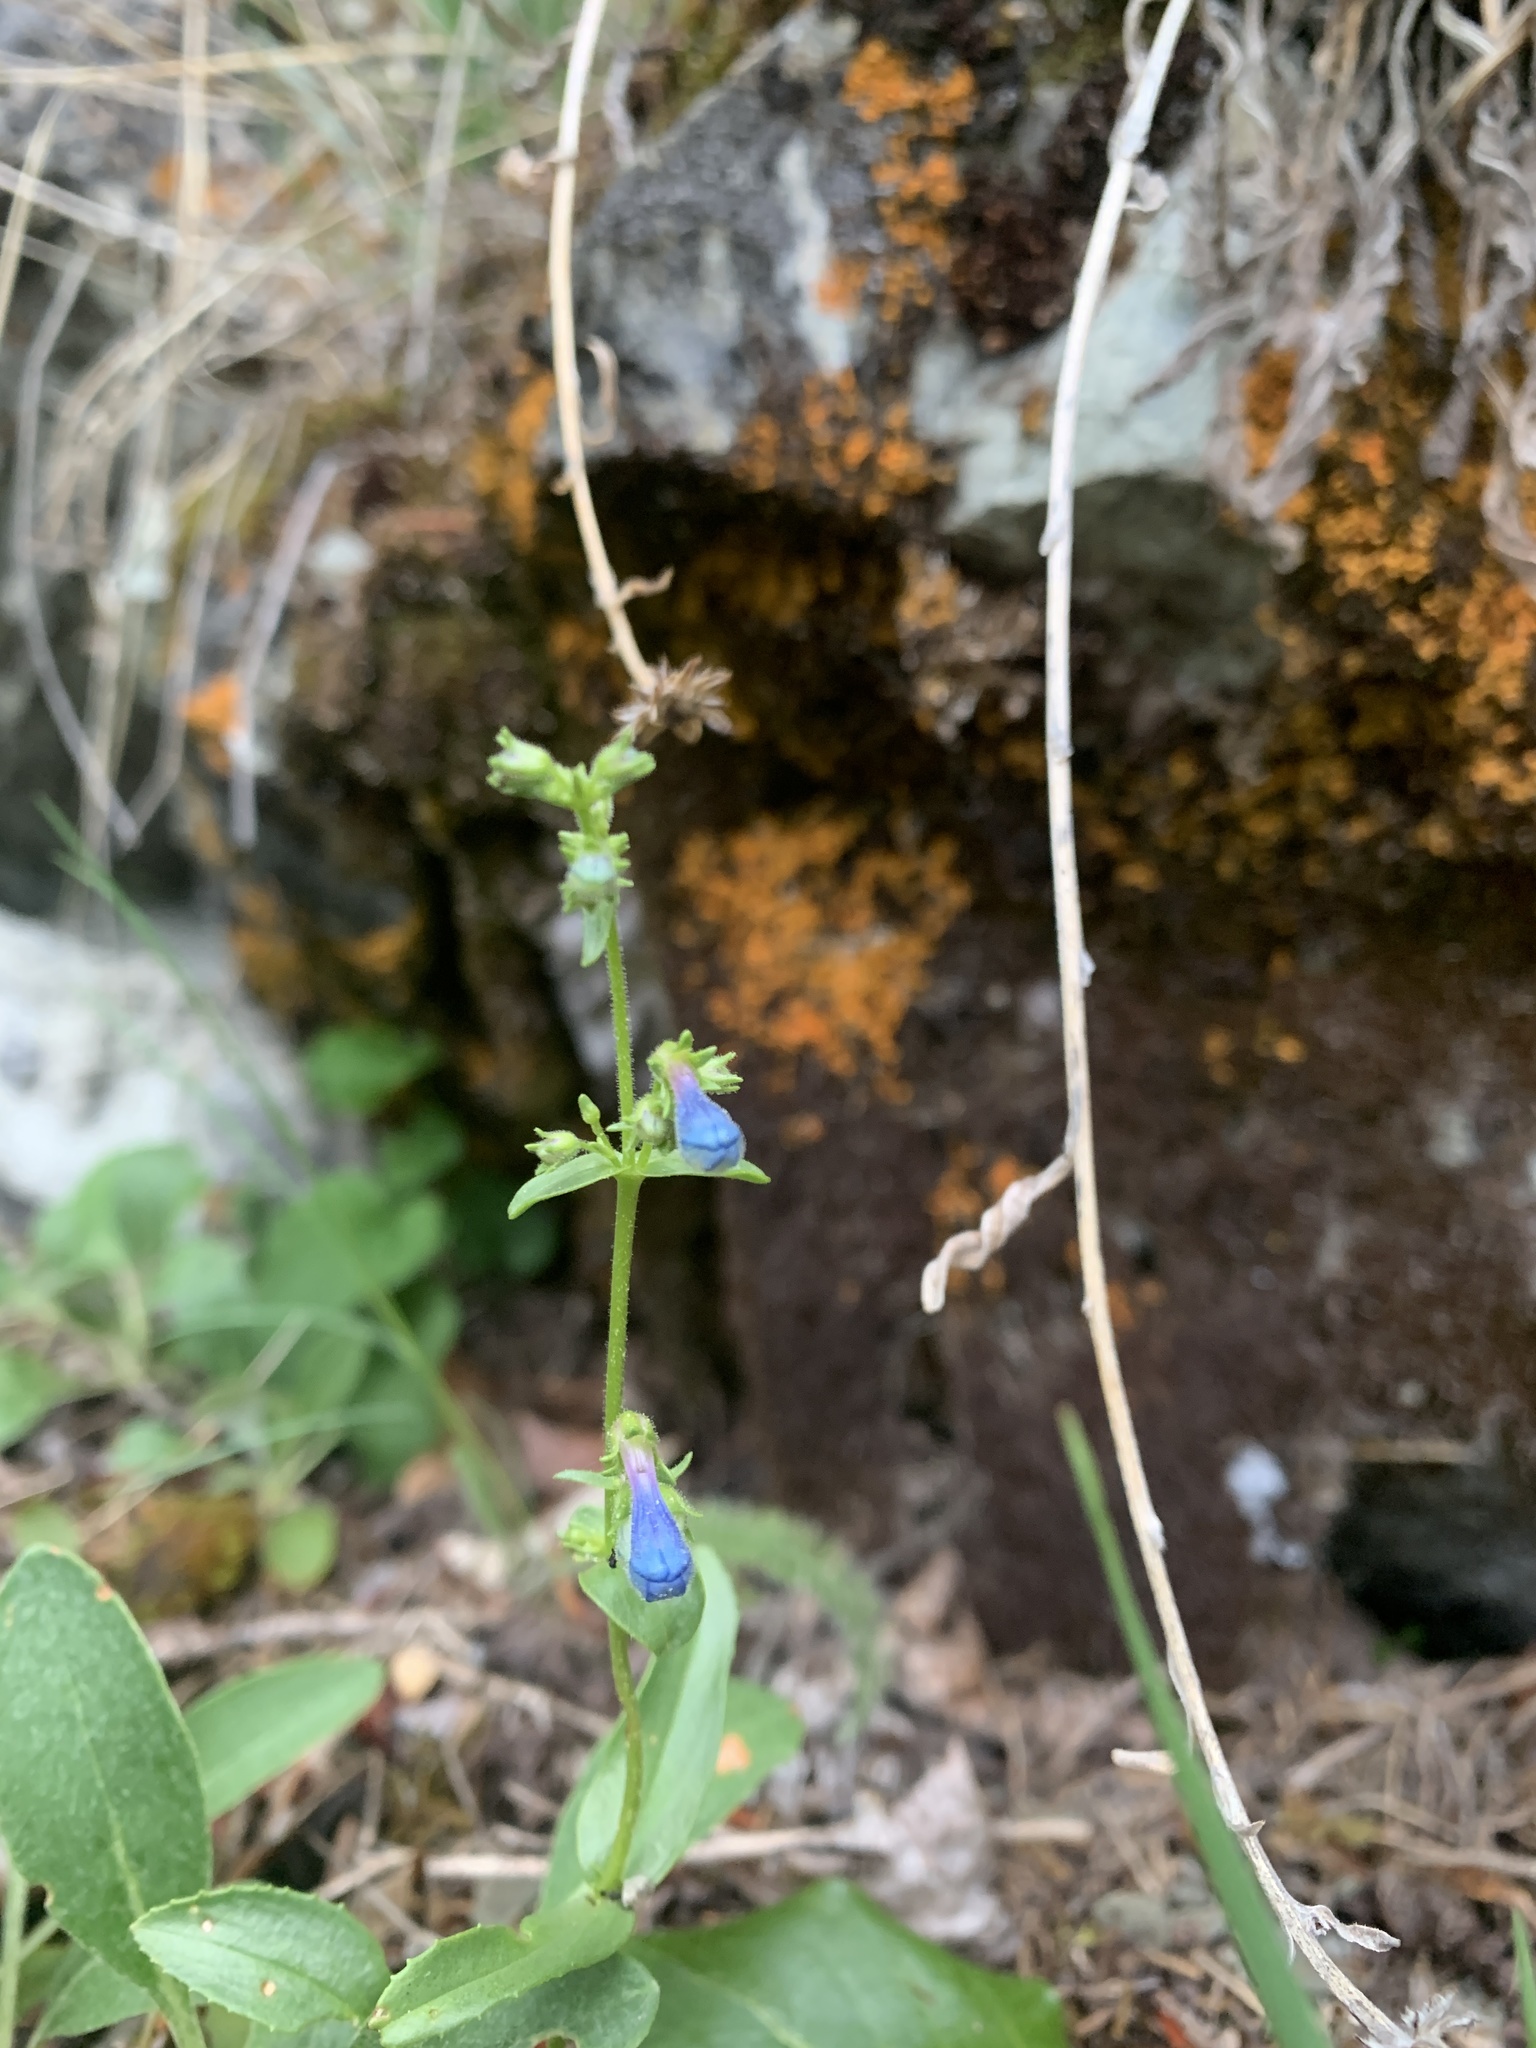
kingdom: Plantae
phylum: Tracheophyta
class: Magnoliopsida
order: Lamiales
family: Plantaginaceae
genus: Penstemon
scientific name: Penstemon albertinus
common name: Alberta beardtongue
